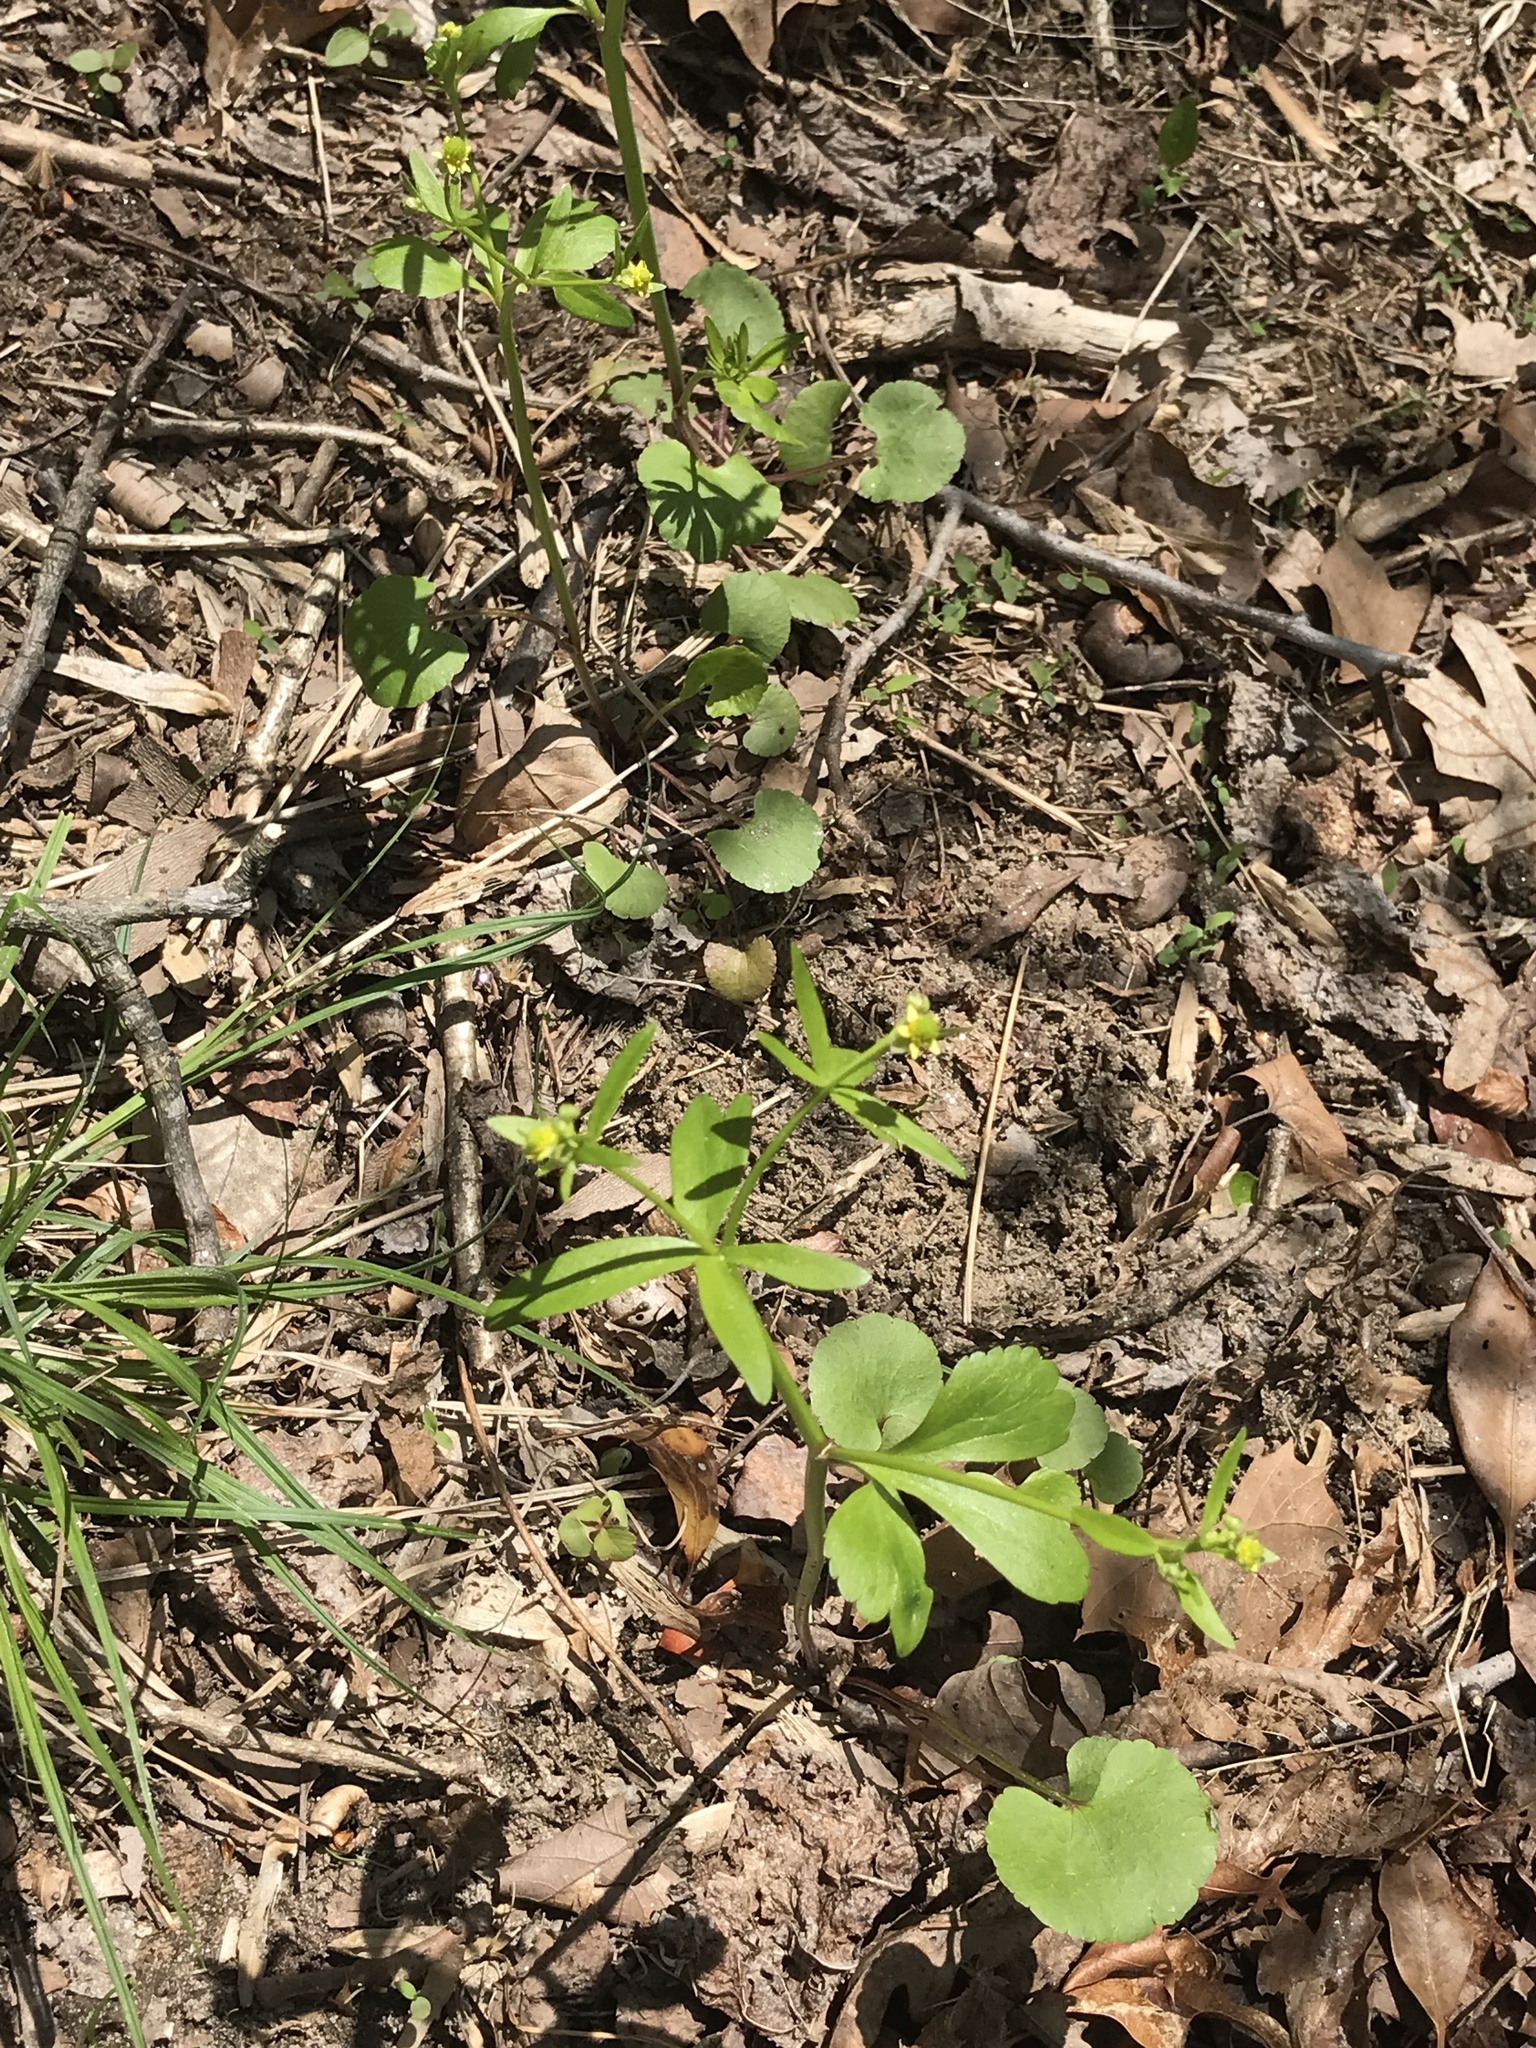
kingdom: Plantae
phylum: Tracheophyta
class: Magnoliopsida
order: Ranunculales
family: Ranunculaceae
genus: Ranunculus
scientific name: Ranunculus abortivus
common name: Early wood buttercup
